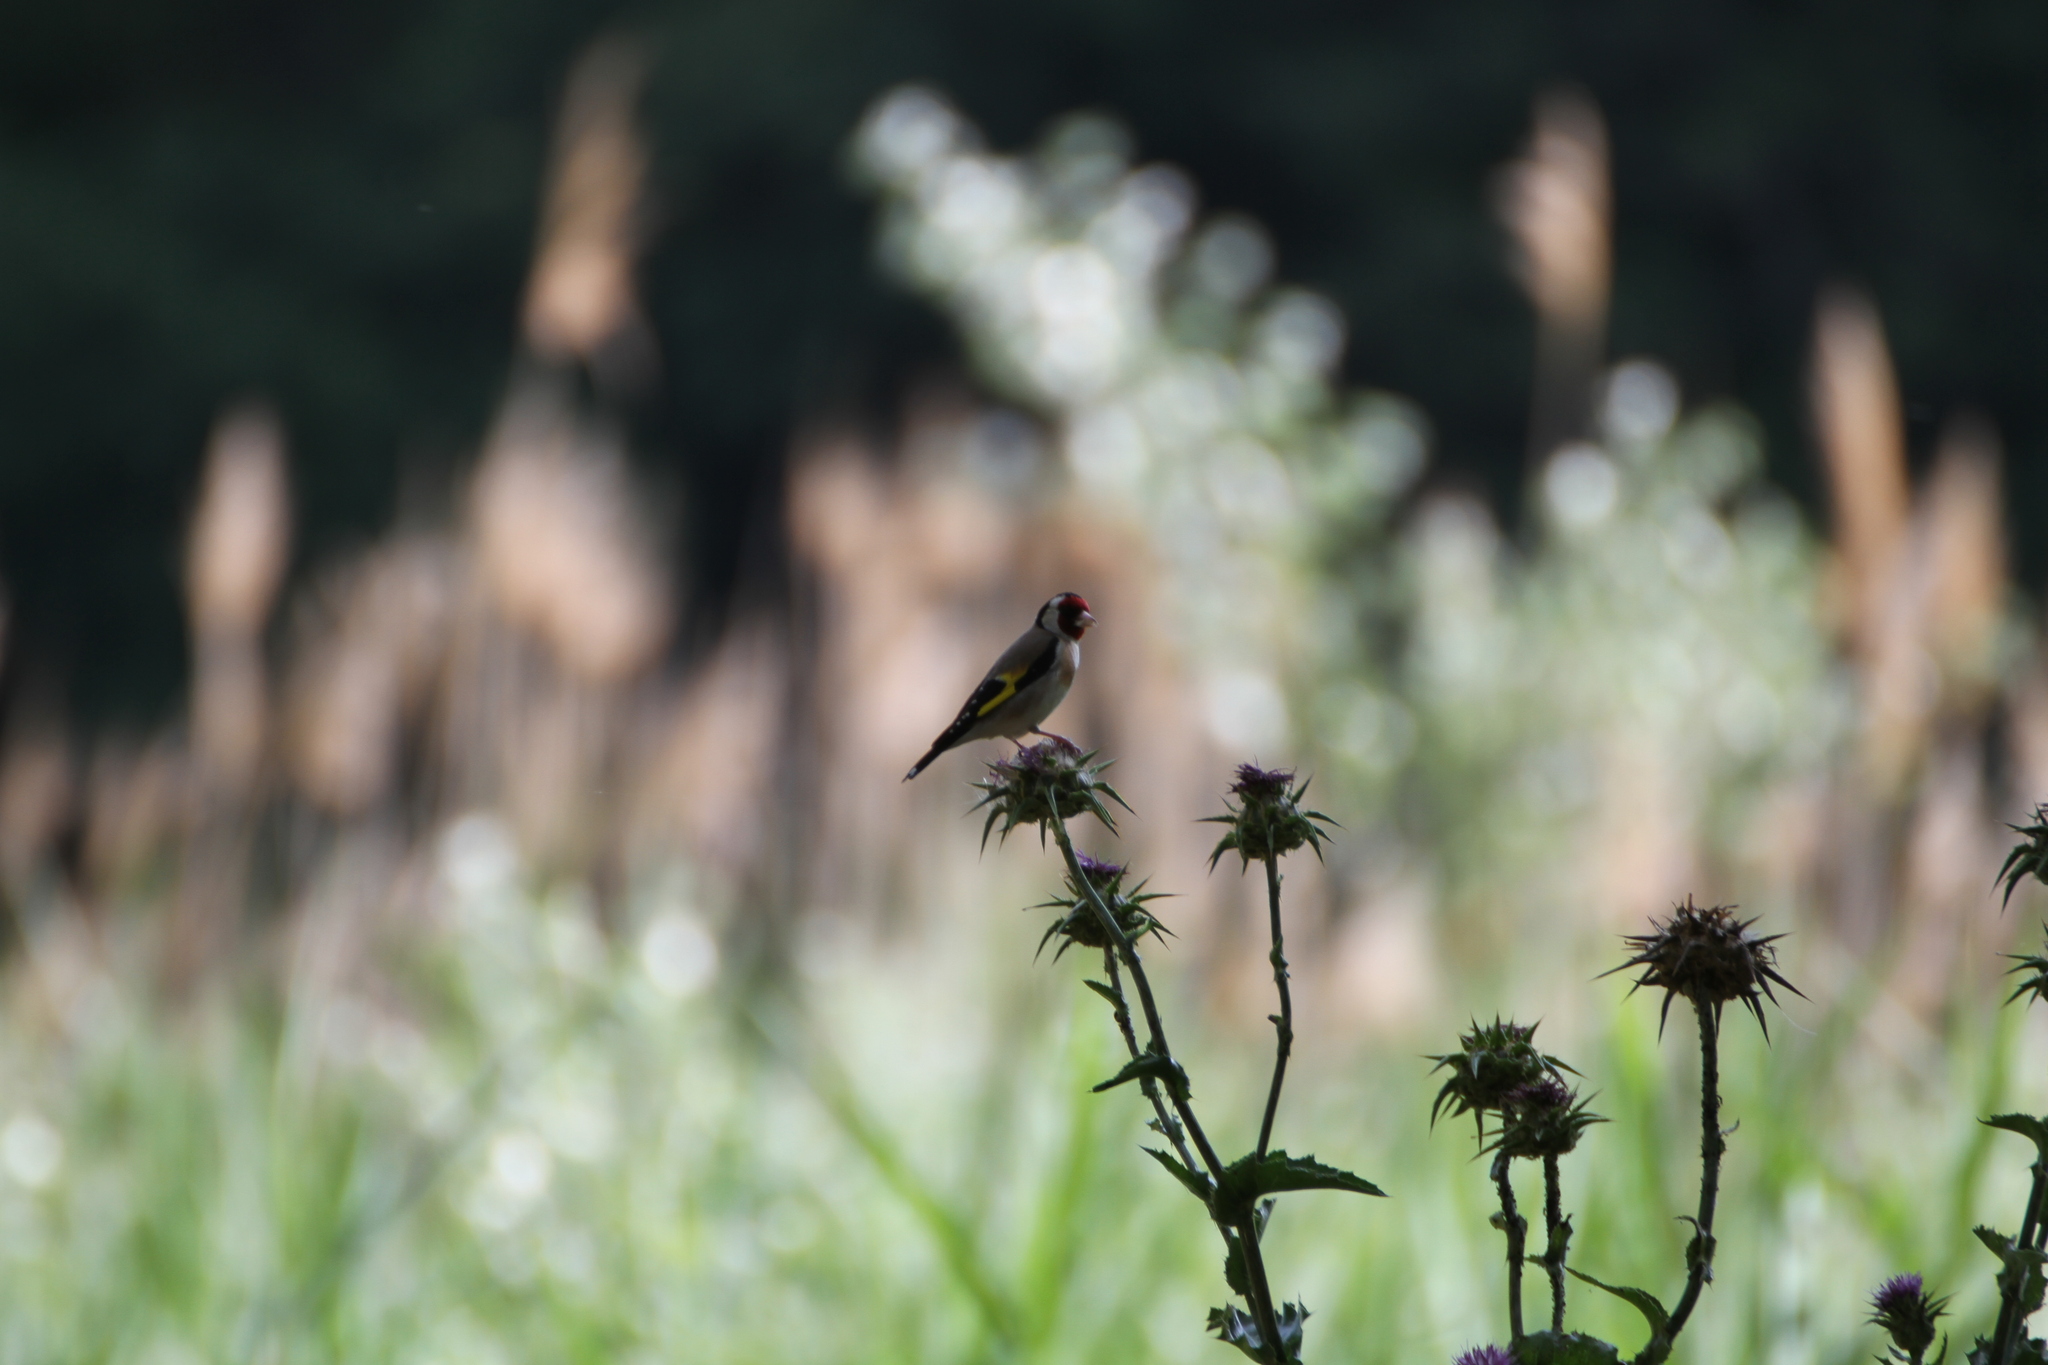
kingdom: Animalia
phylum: Chordata
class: Aves
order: Passeriformes
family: Fringillidae
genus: Carduelis
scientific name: Carduelis carduelis
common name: European goldfinch
